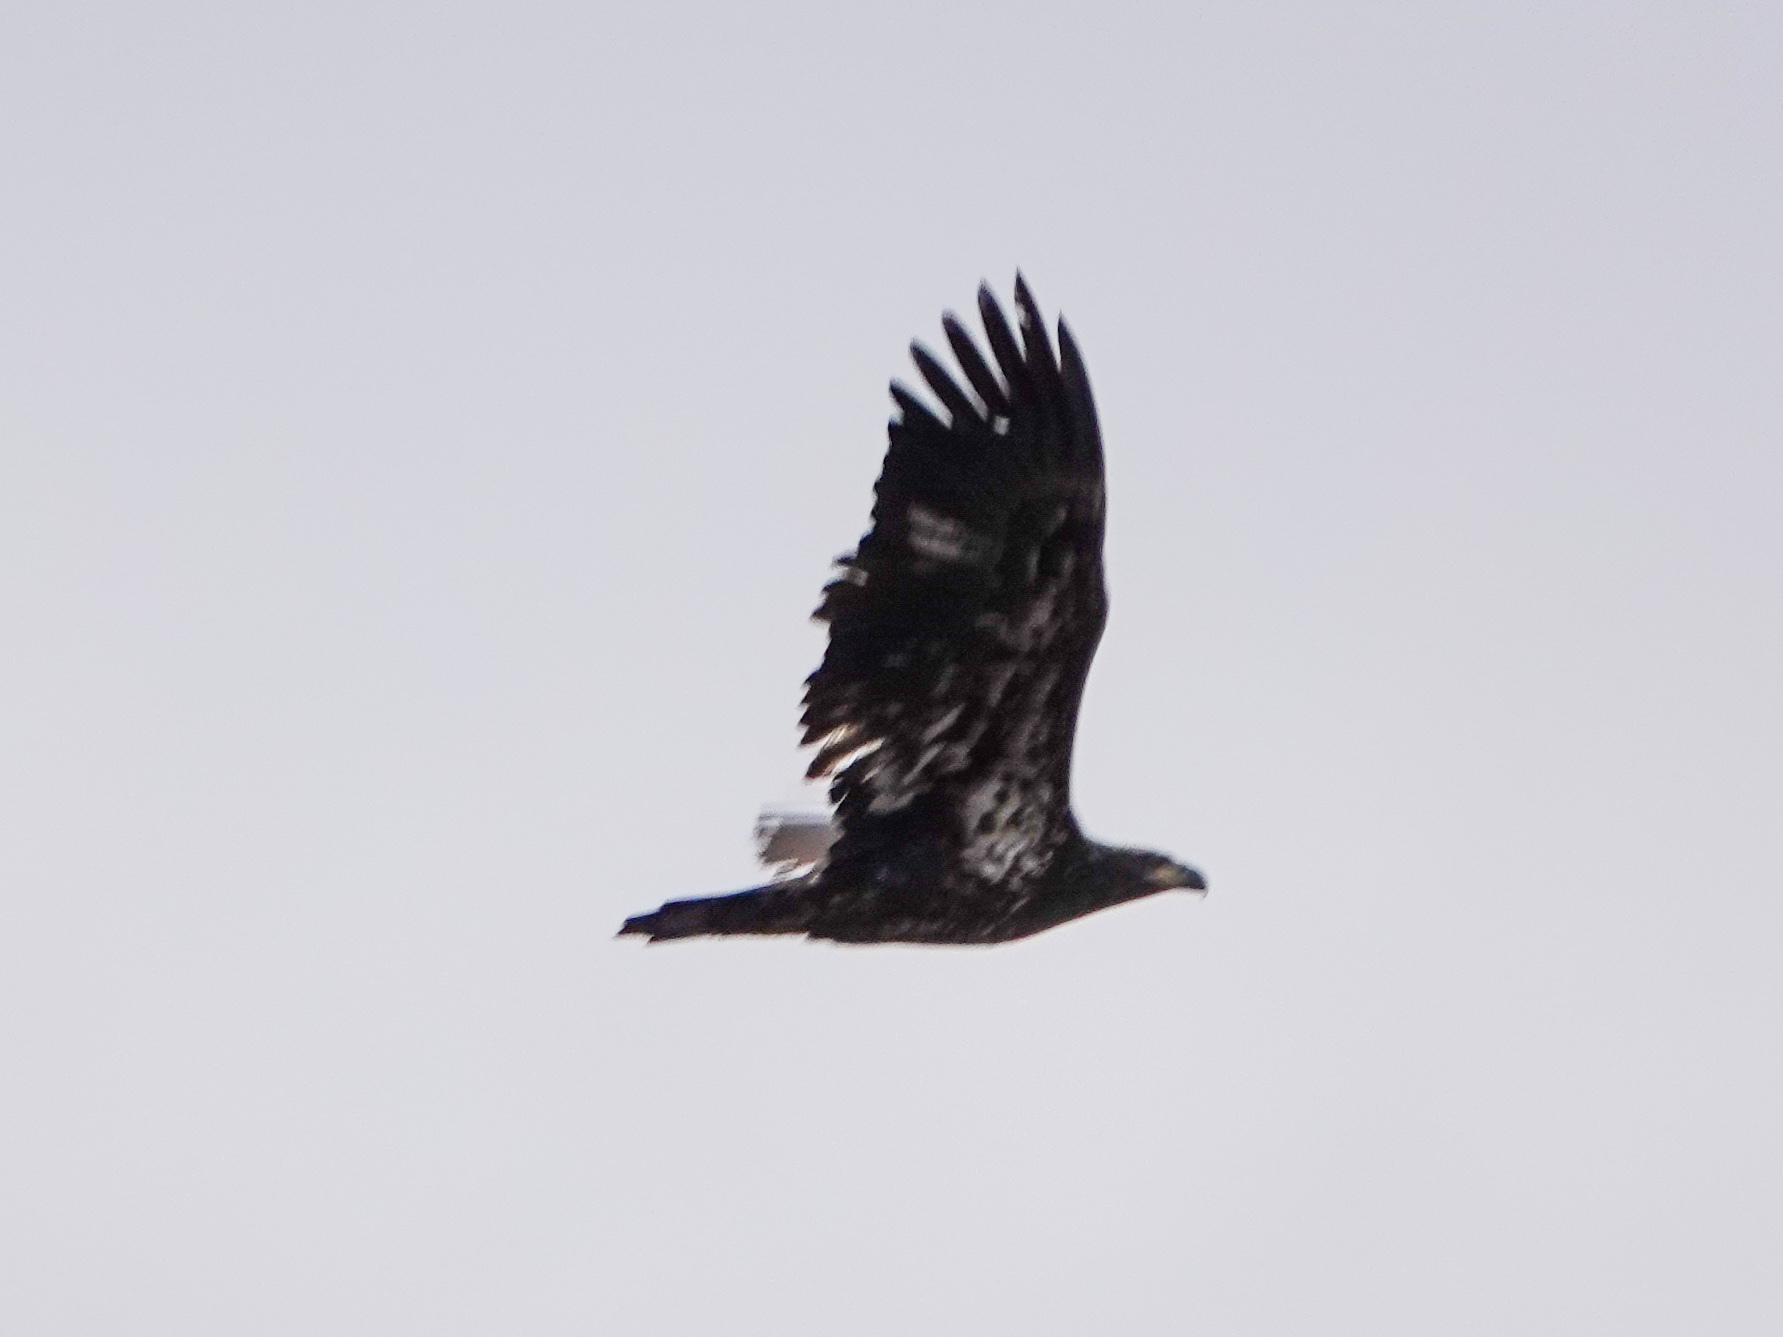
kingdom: Animalia
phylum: Chordata
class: Aves
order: Accipitriformes
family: Accipitridae
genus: Haliaeetus
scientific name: Haliaeetus leucocephalus
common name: Bald eagle
